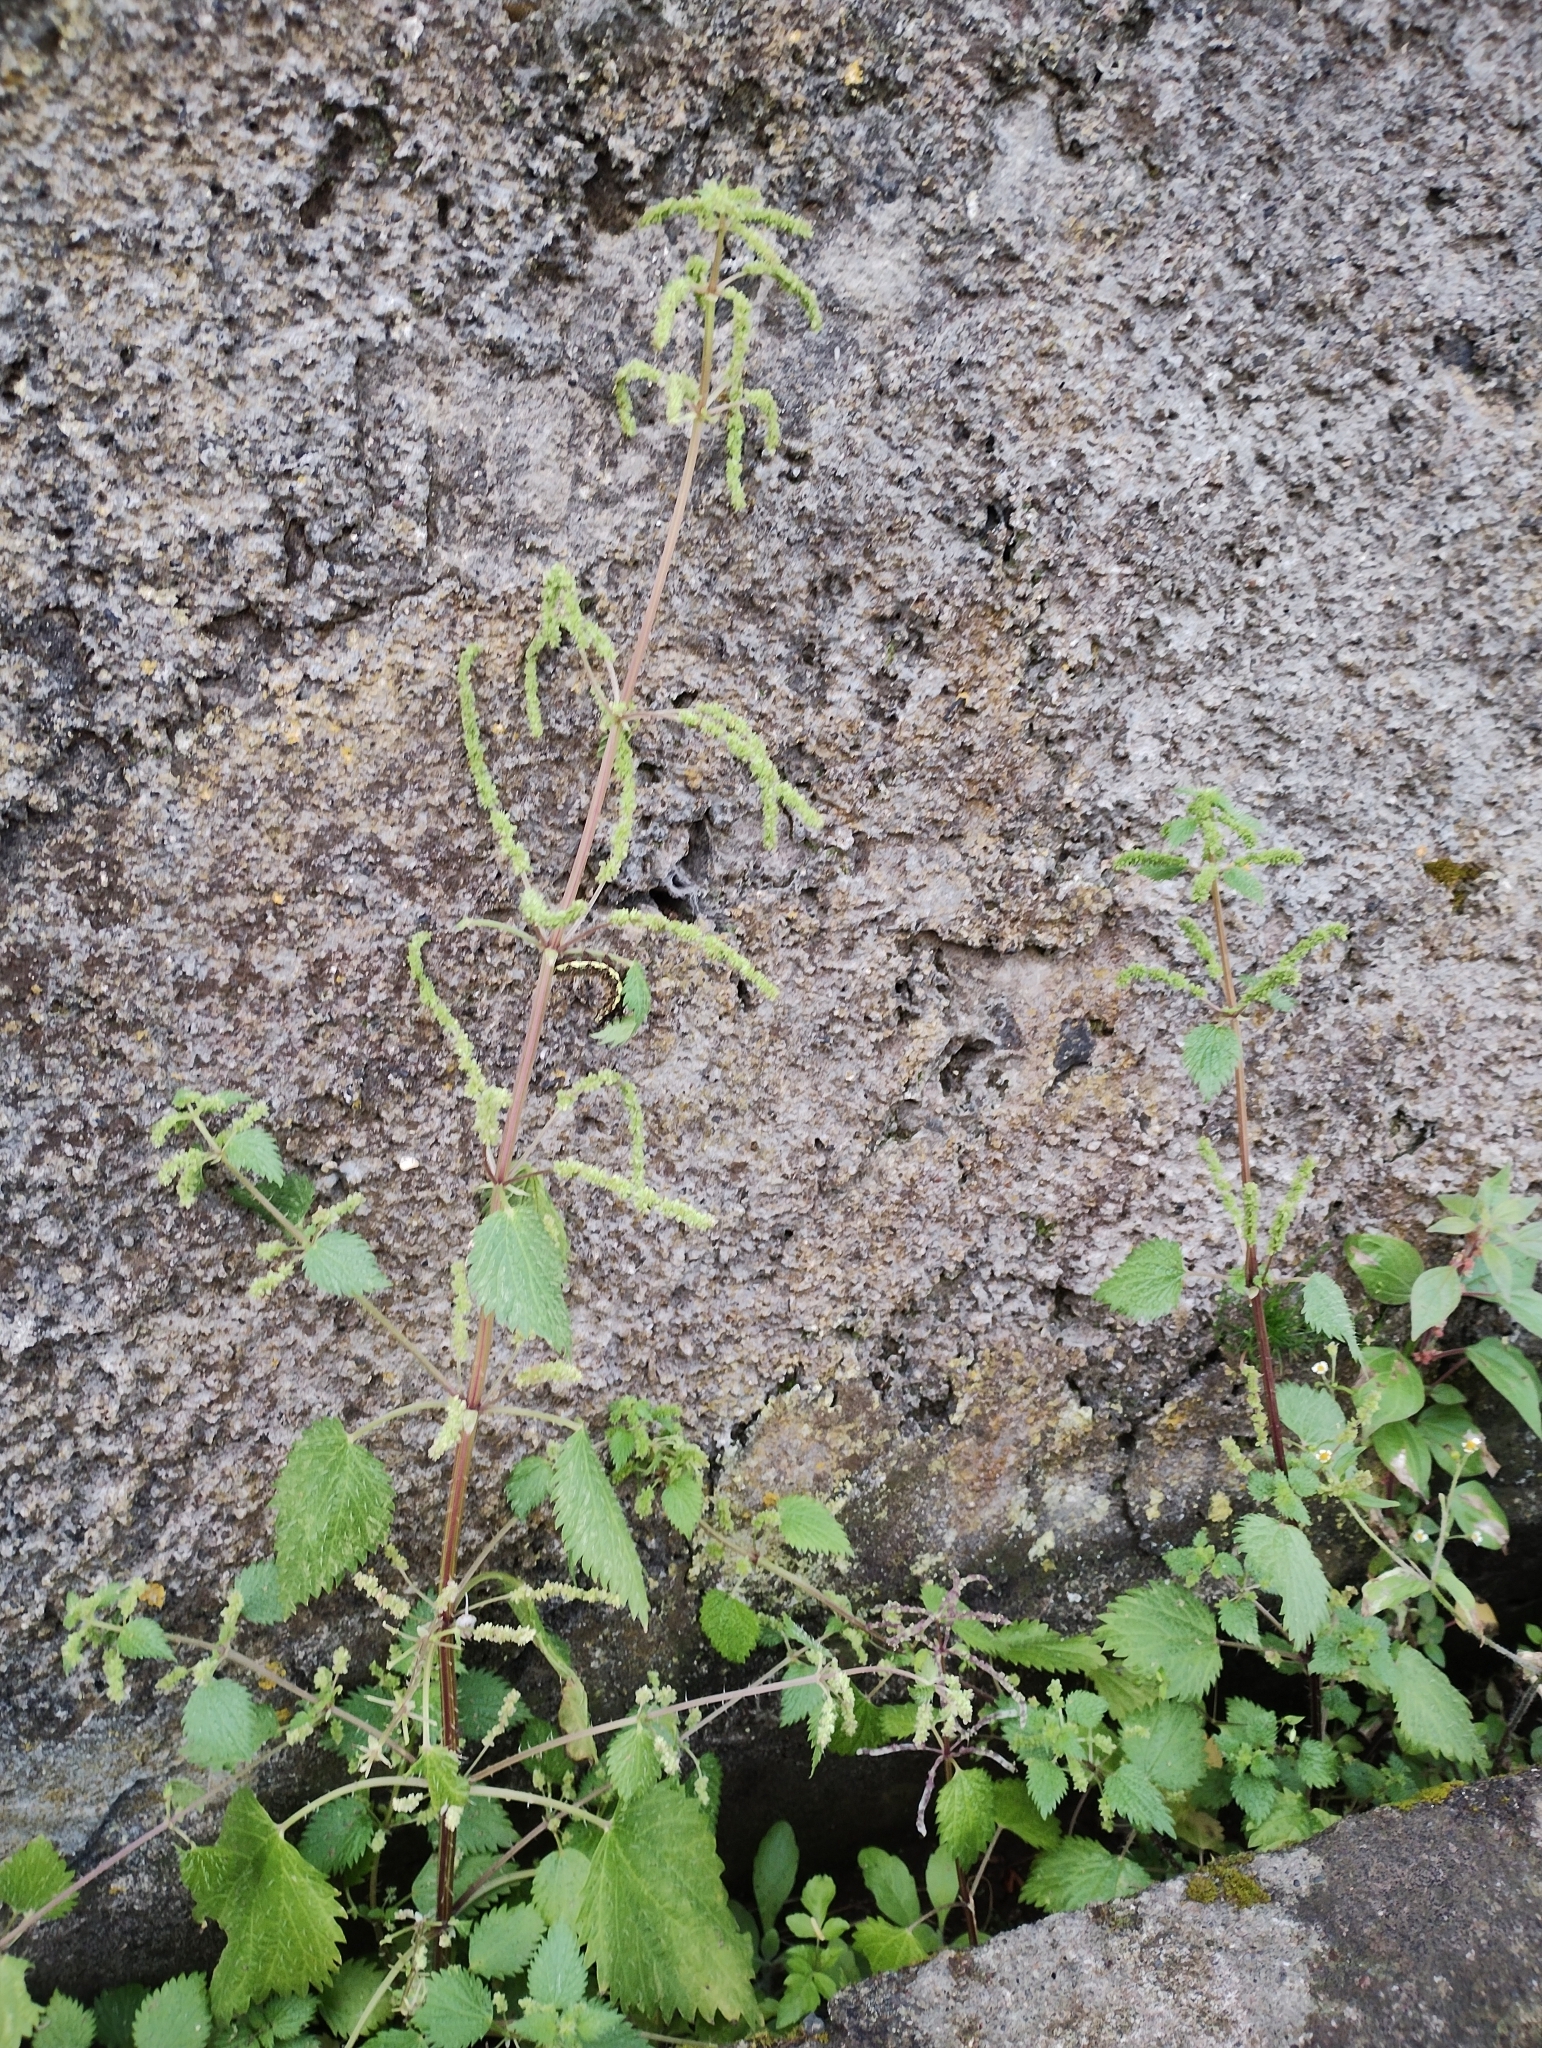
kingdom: Plantae
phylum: Tracheophyta
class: Magnoliopsida
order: Rosales
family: Urticaceae
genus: Urtica
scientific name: Urtica membranacea
